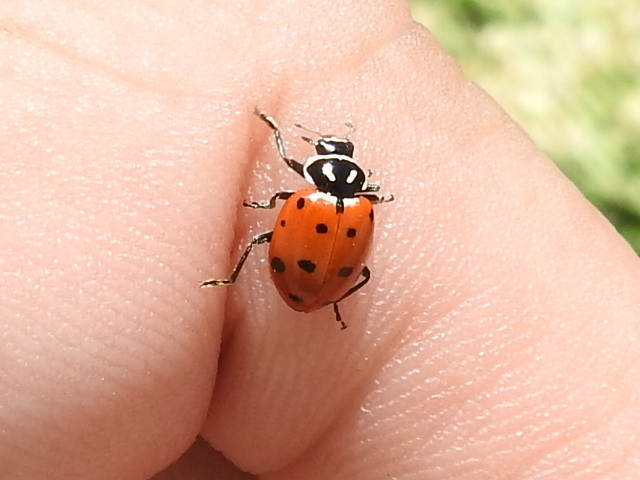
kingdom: Animalia
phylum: Arthropoda
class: Insecta
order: Coleoptera
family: Coccinellidae
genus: Hippodamia
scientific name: Hippodamia convergens
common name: Convergent lady beetle
